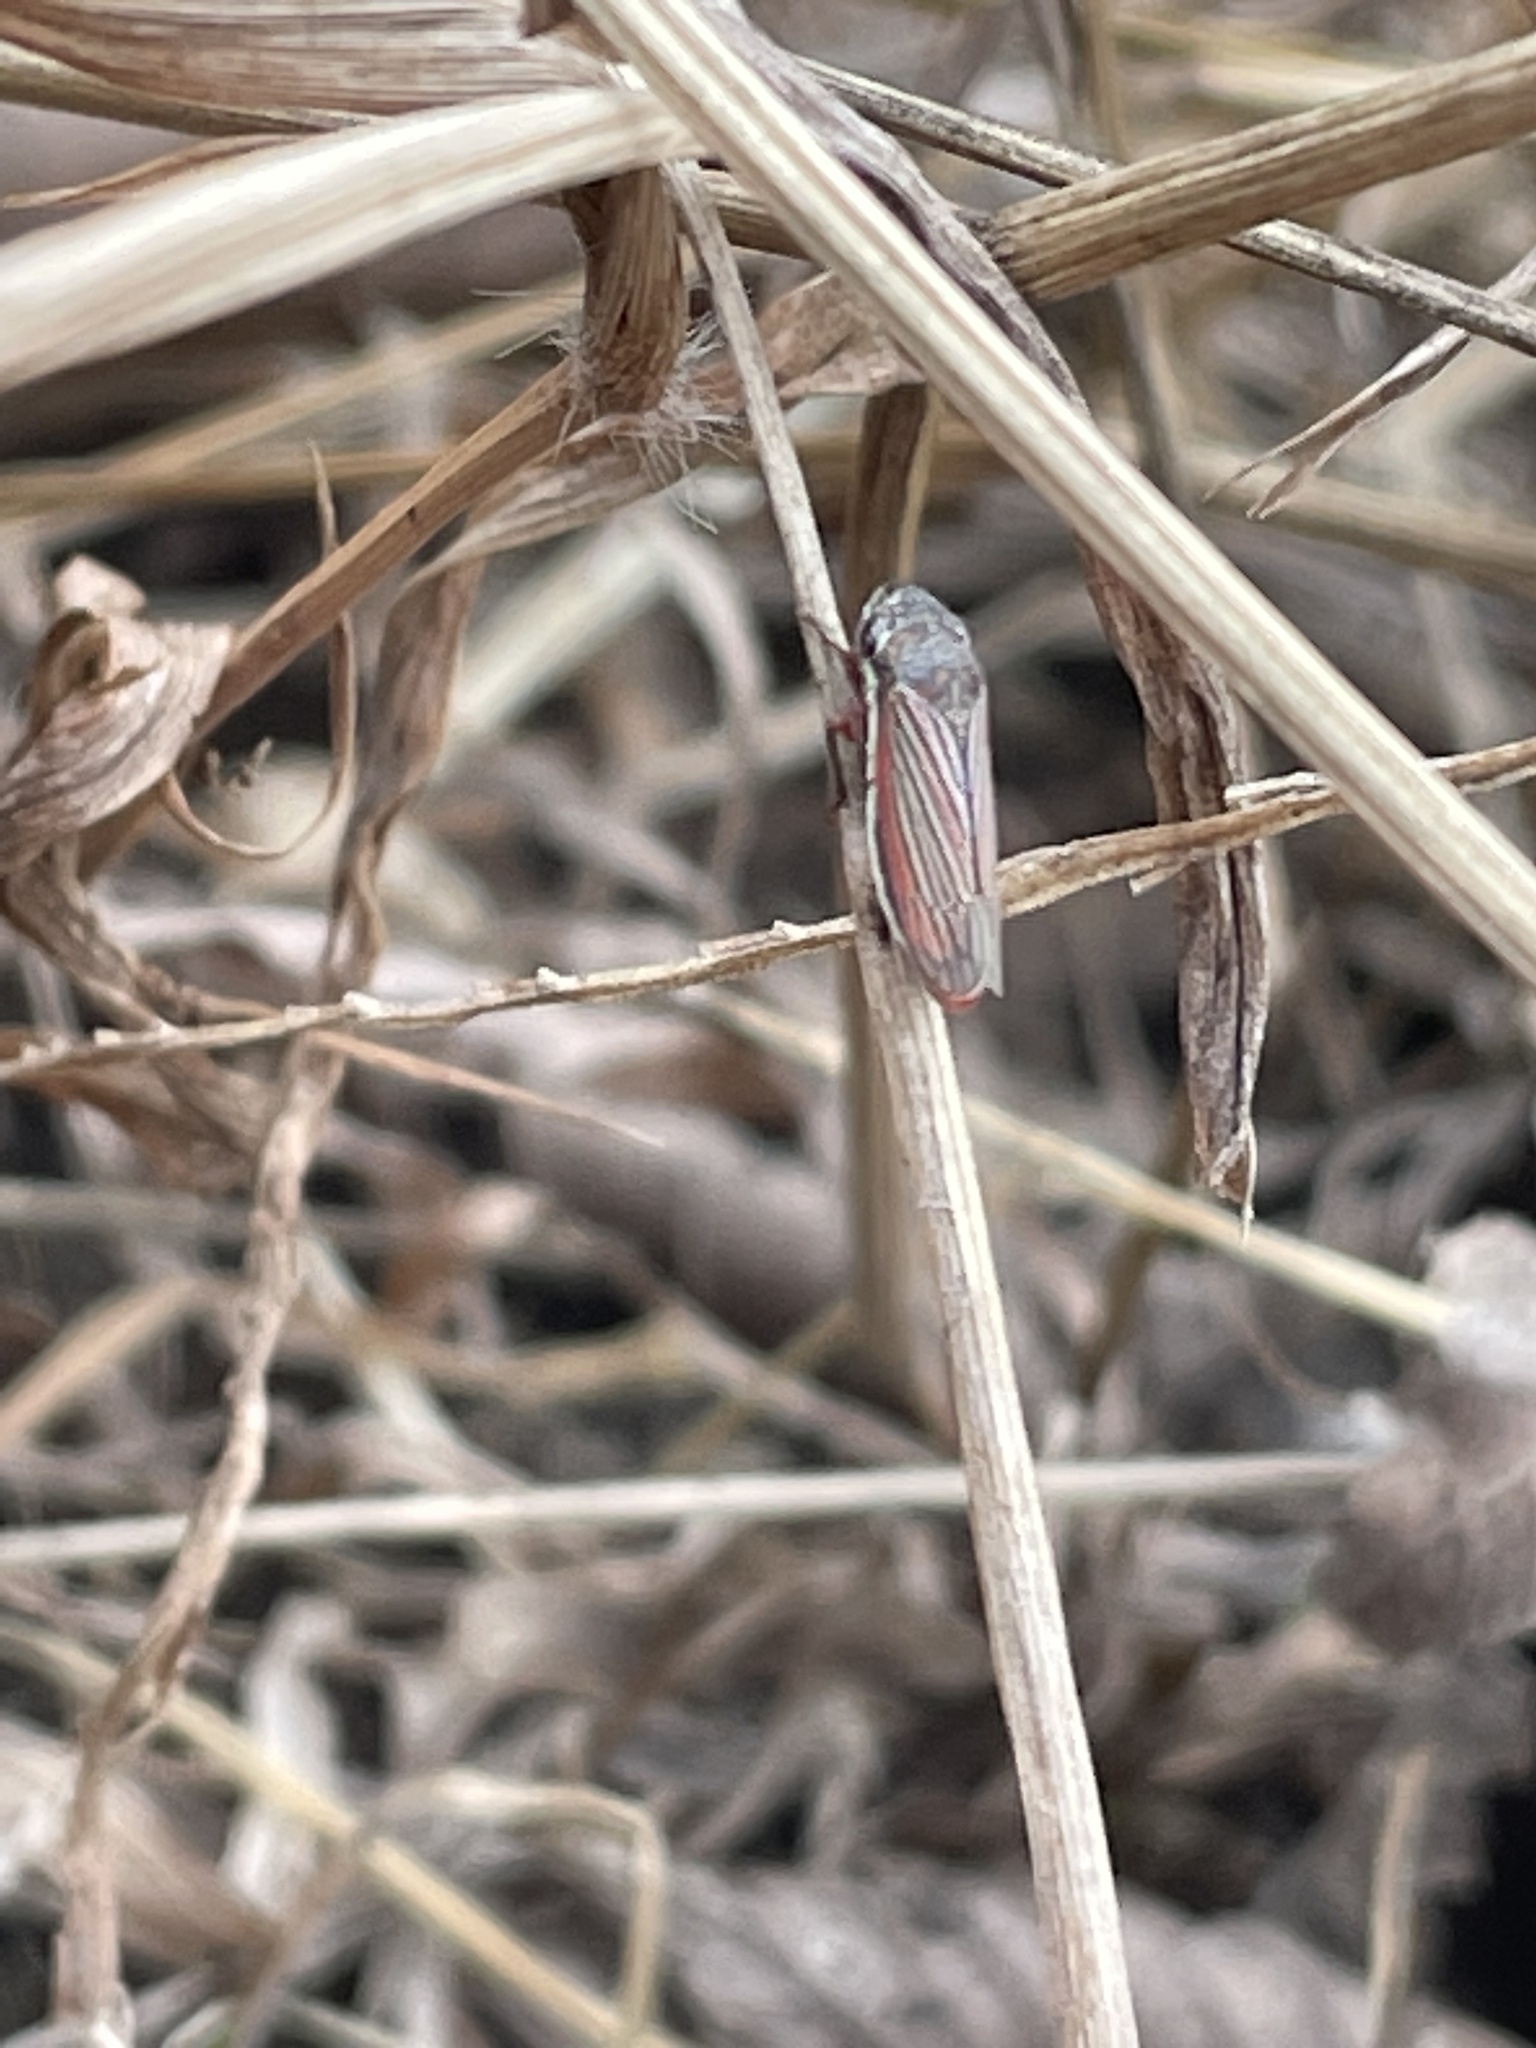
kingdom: Animalia
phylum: Arthropoda
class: Insecta
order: Hemiptera
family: Cicadellidae
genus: Cuerna
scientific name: Cuerna costalis
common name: Lateral-lined sharpshooter
